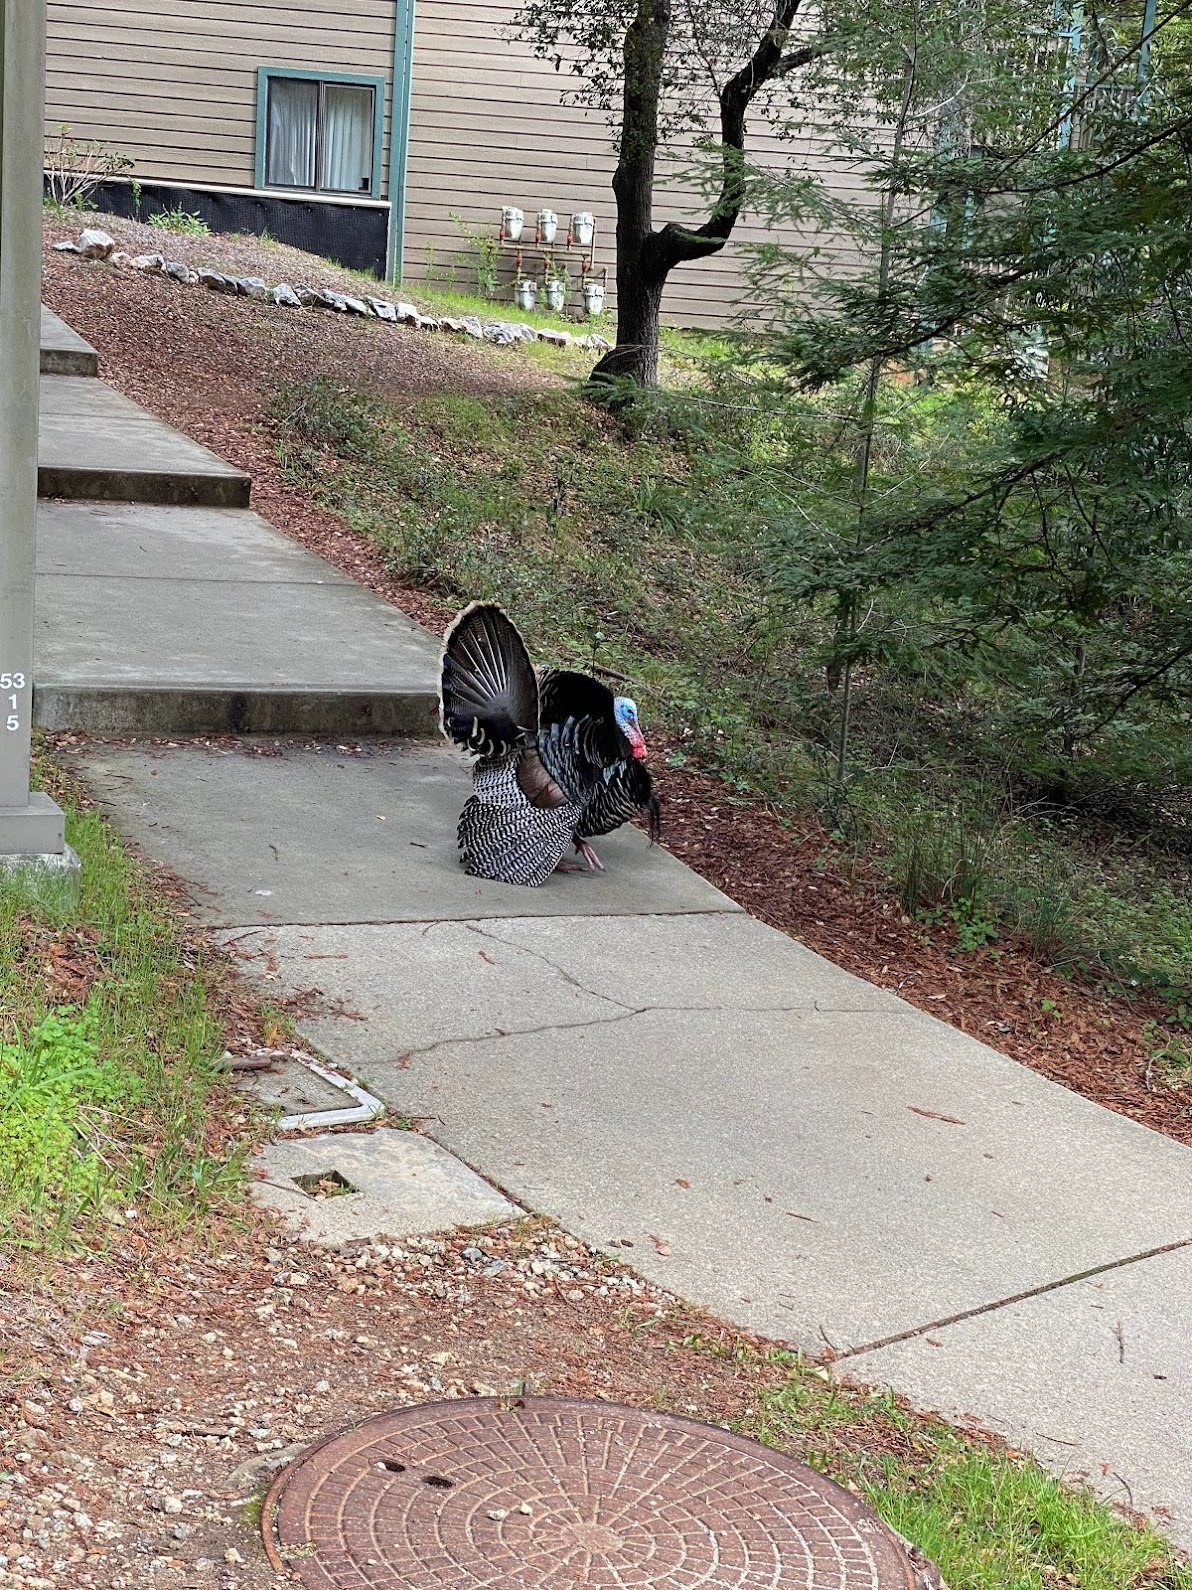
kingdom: Animalia
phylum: Chordata
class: Aves
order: Galliformes
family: Phasianidae
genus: Meleagris
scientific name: Meleagris gallopavo
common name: Wild turkey
